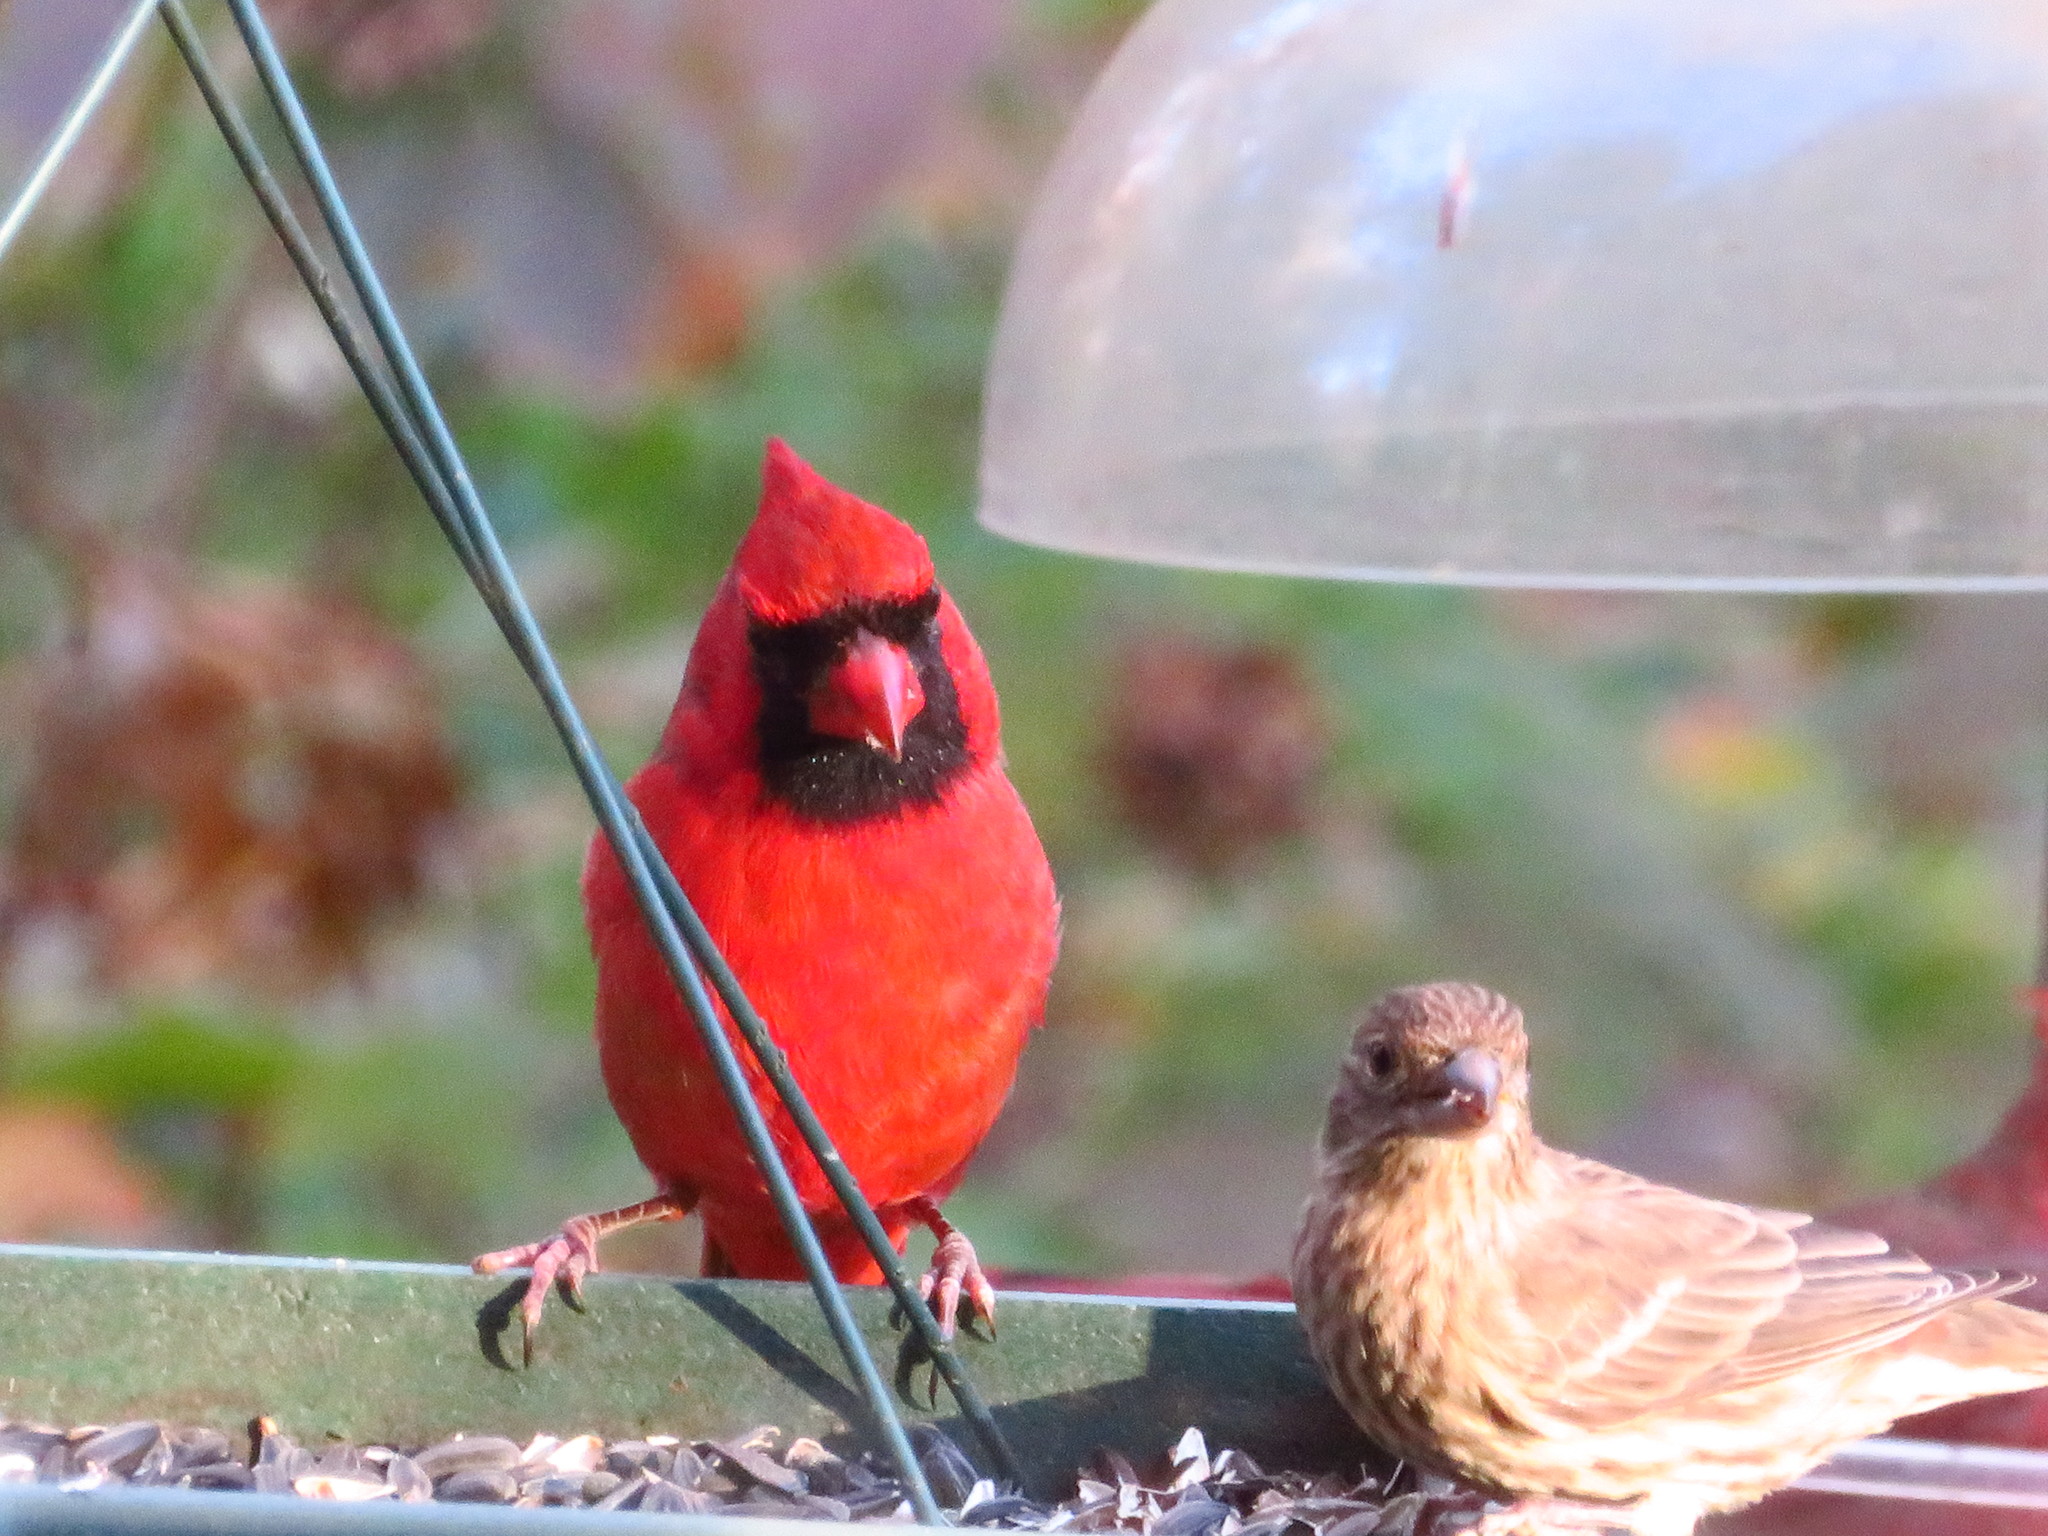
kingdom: Animalia
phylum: Chordata
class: Aves
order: Passeriformes
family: Cardinalidae
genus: Cardinalis
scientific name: Cardinalis cardinalis
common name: Northern cardinal
